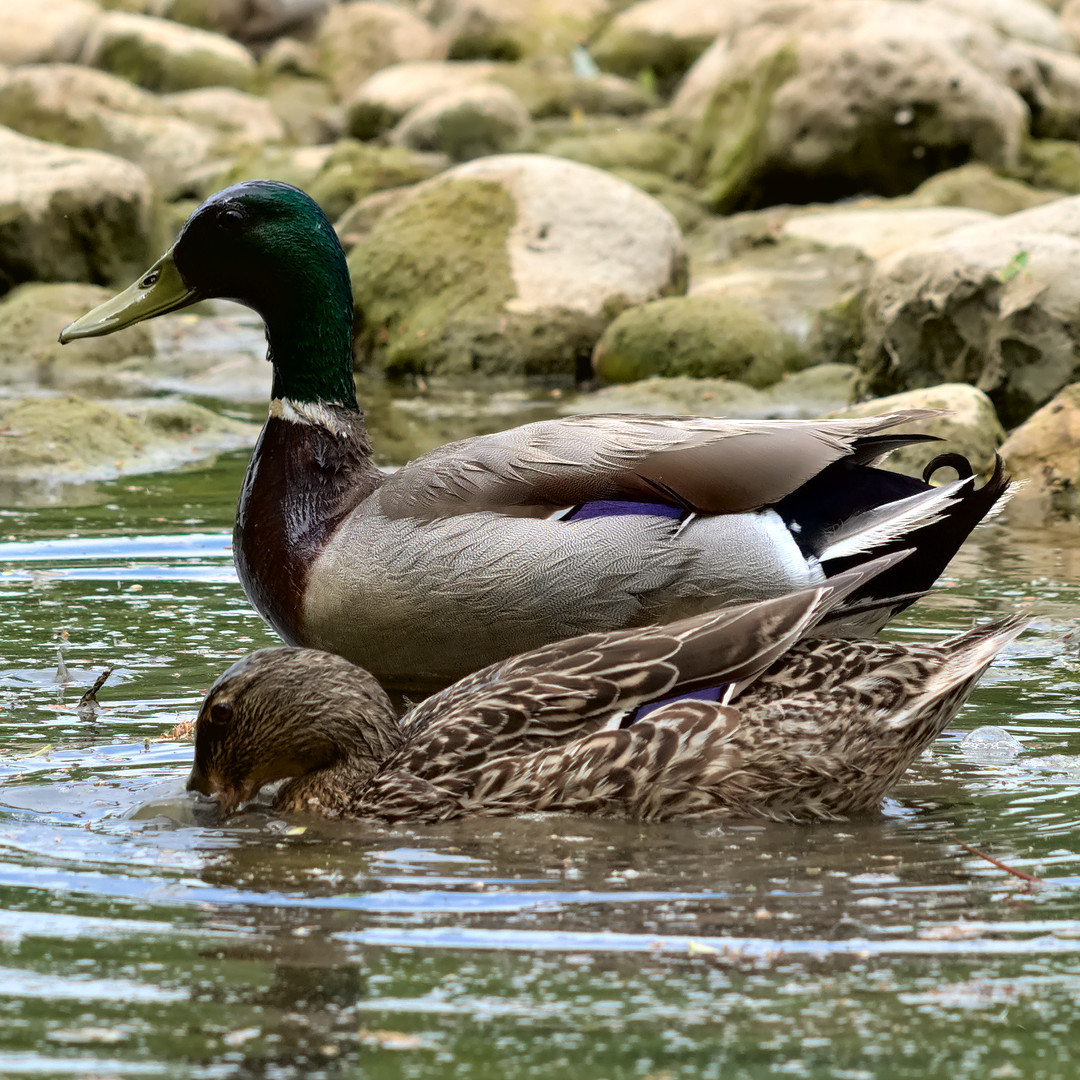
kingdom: Animalia
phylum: Chordata
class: Aves
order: Anseriformes
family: Anatidae
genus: Anas
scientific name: Anas platyrhynchos
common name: Mallard
